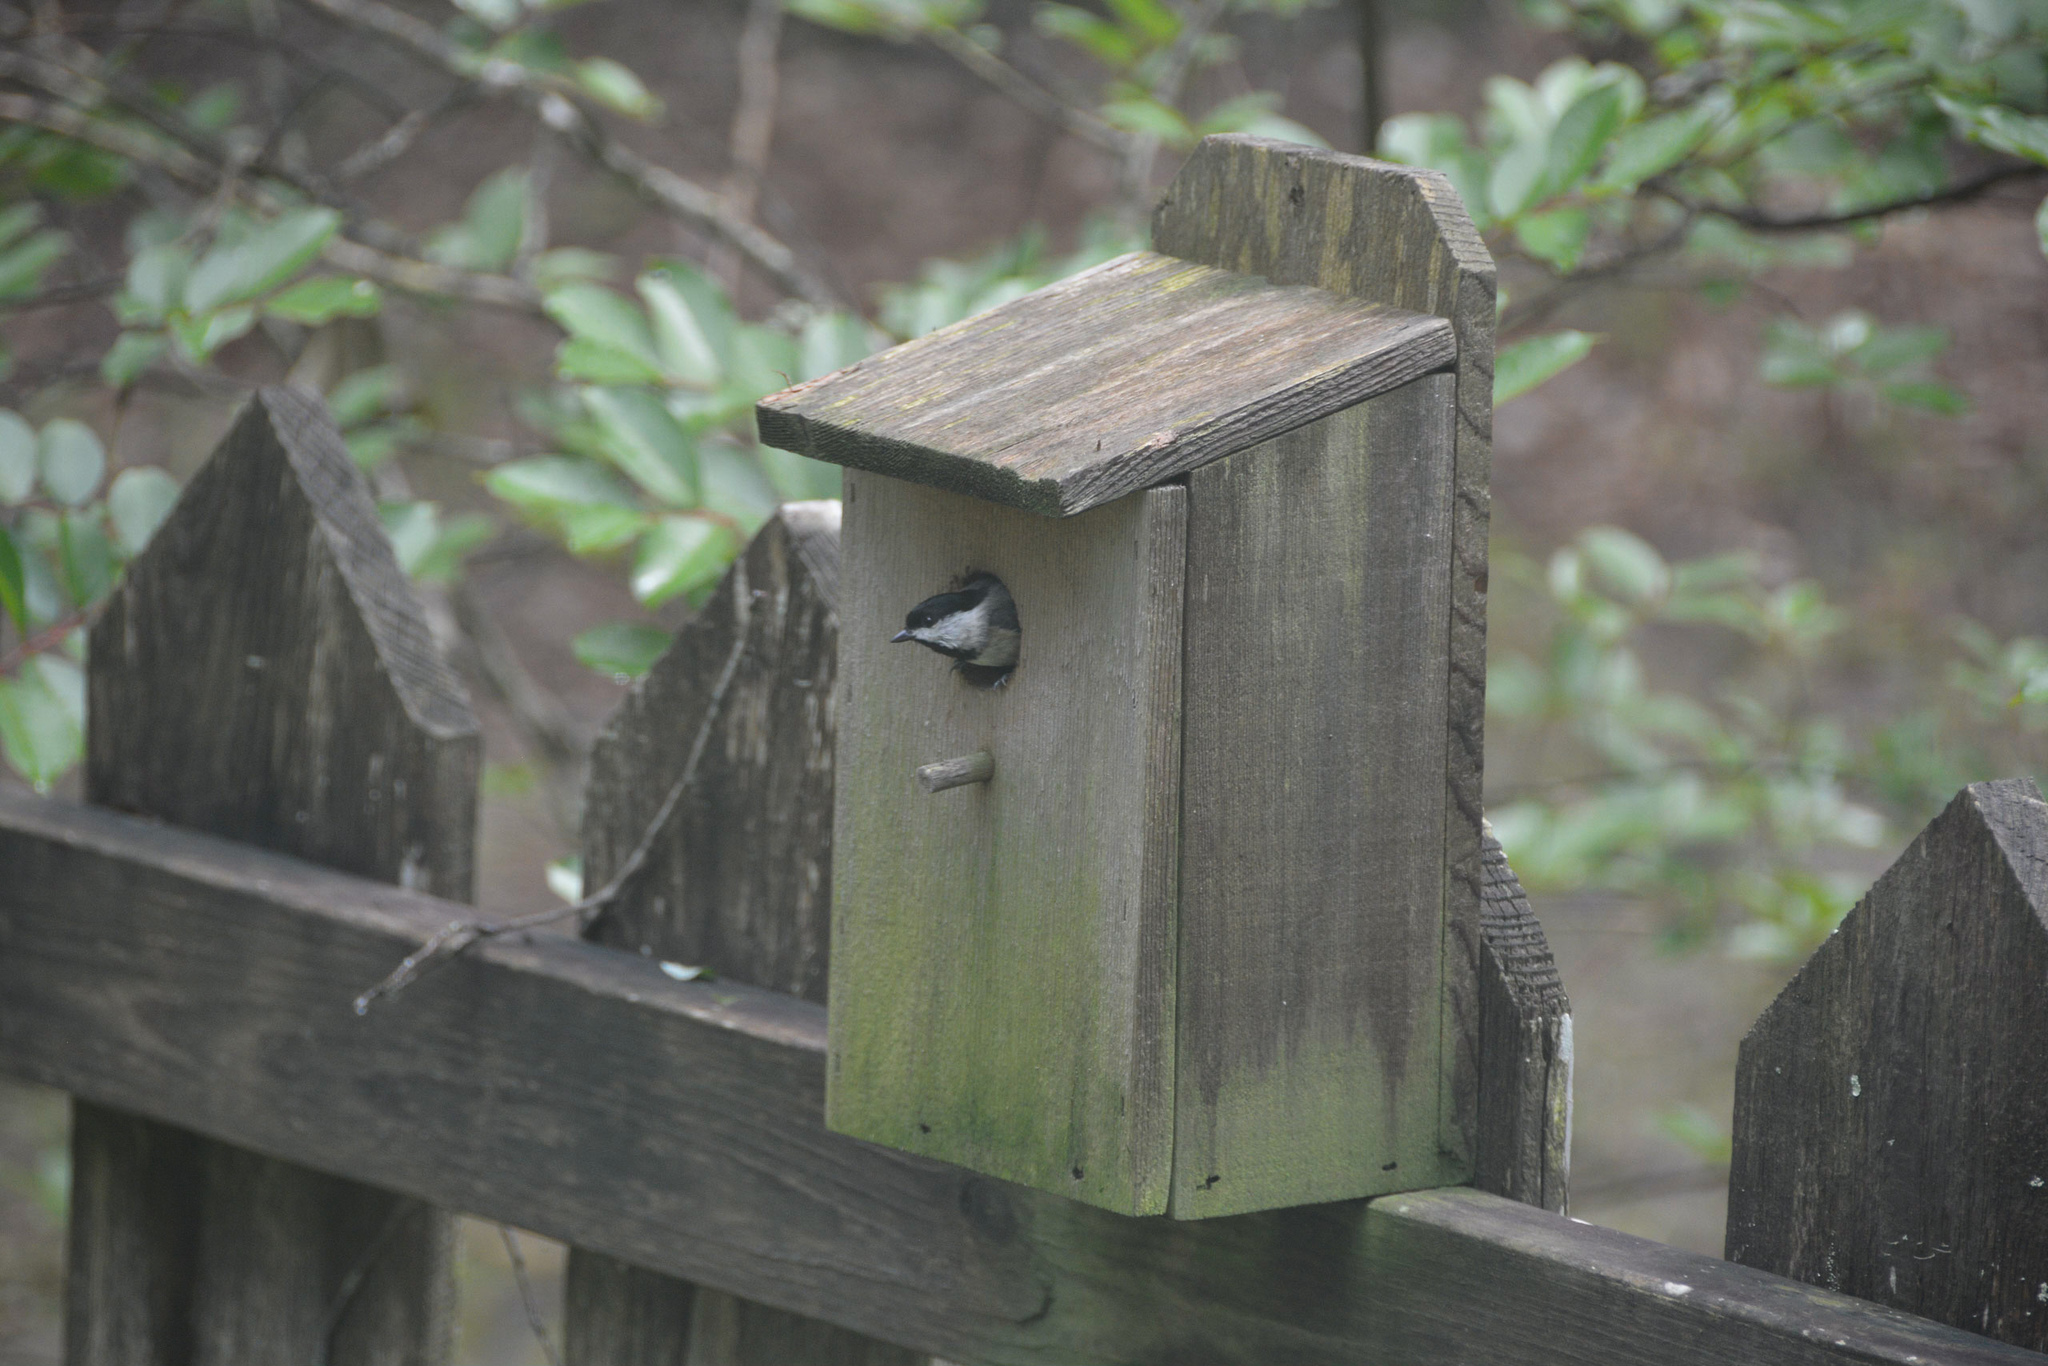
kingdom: Animalia
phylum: Chordata
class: Aves
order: Passeriformes
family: Paridae
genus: Poecile
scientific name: Poecile carolinensis
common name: Carolina chickadee
